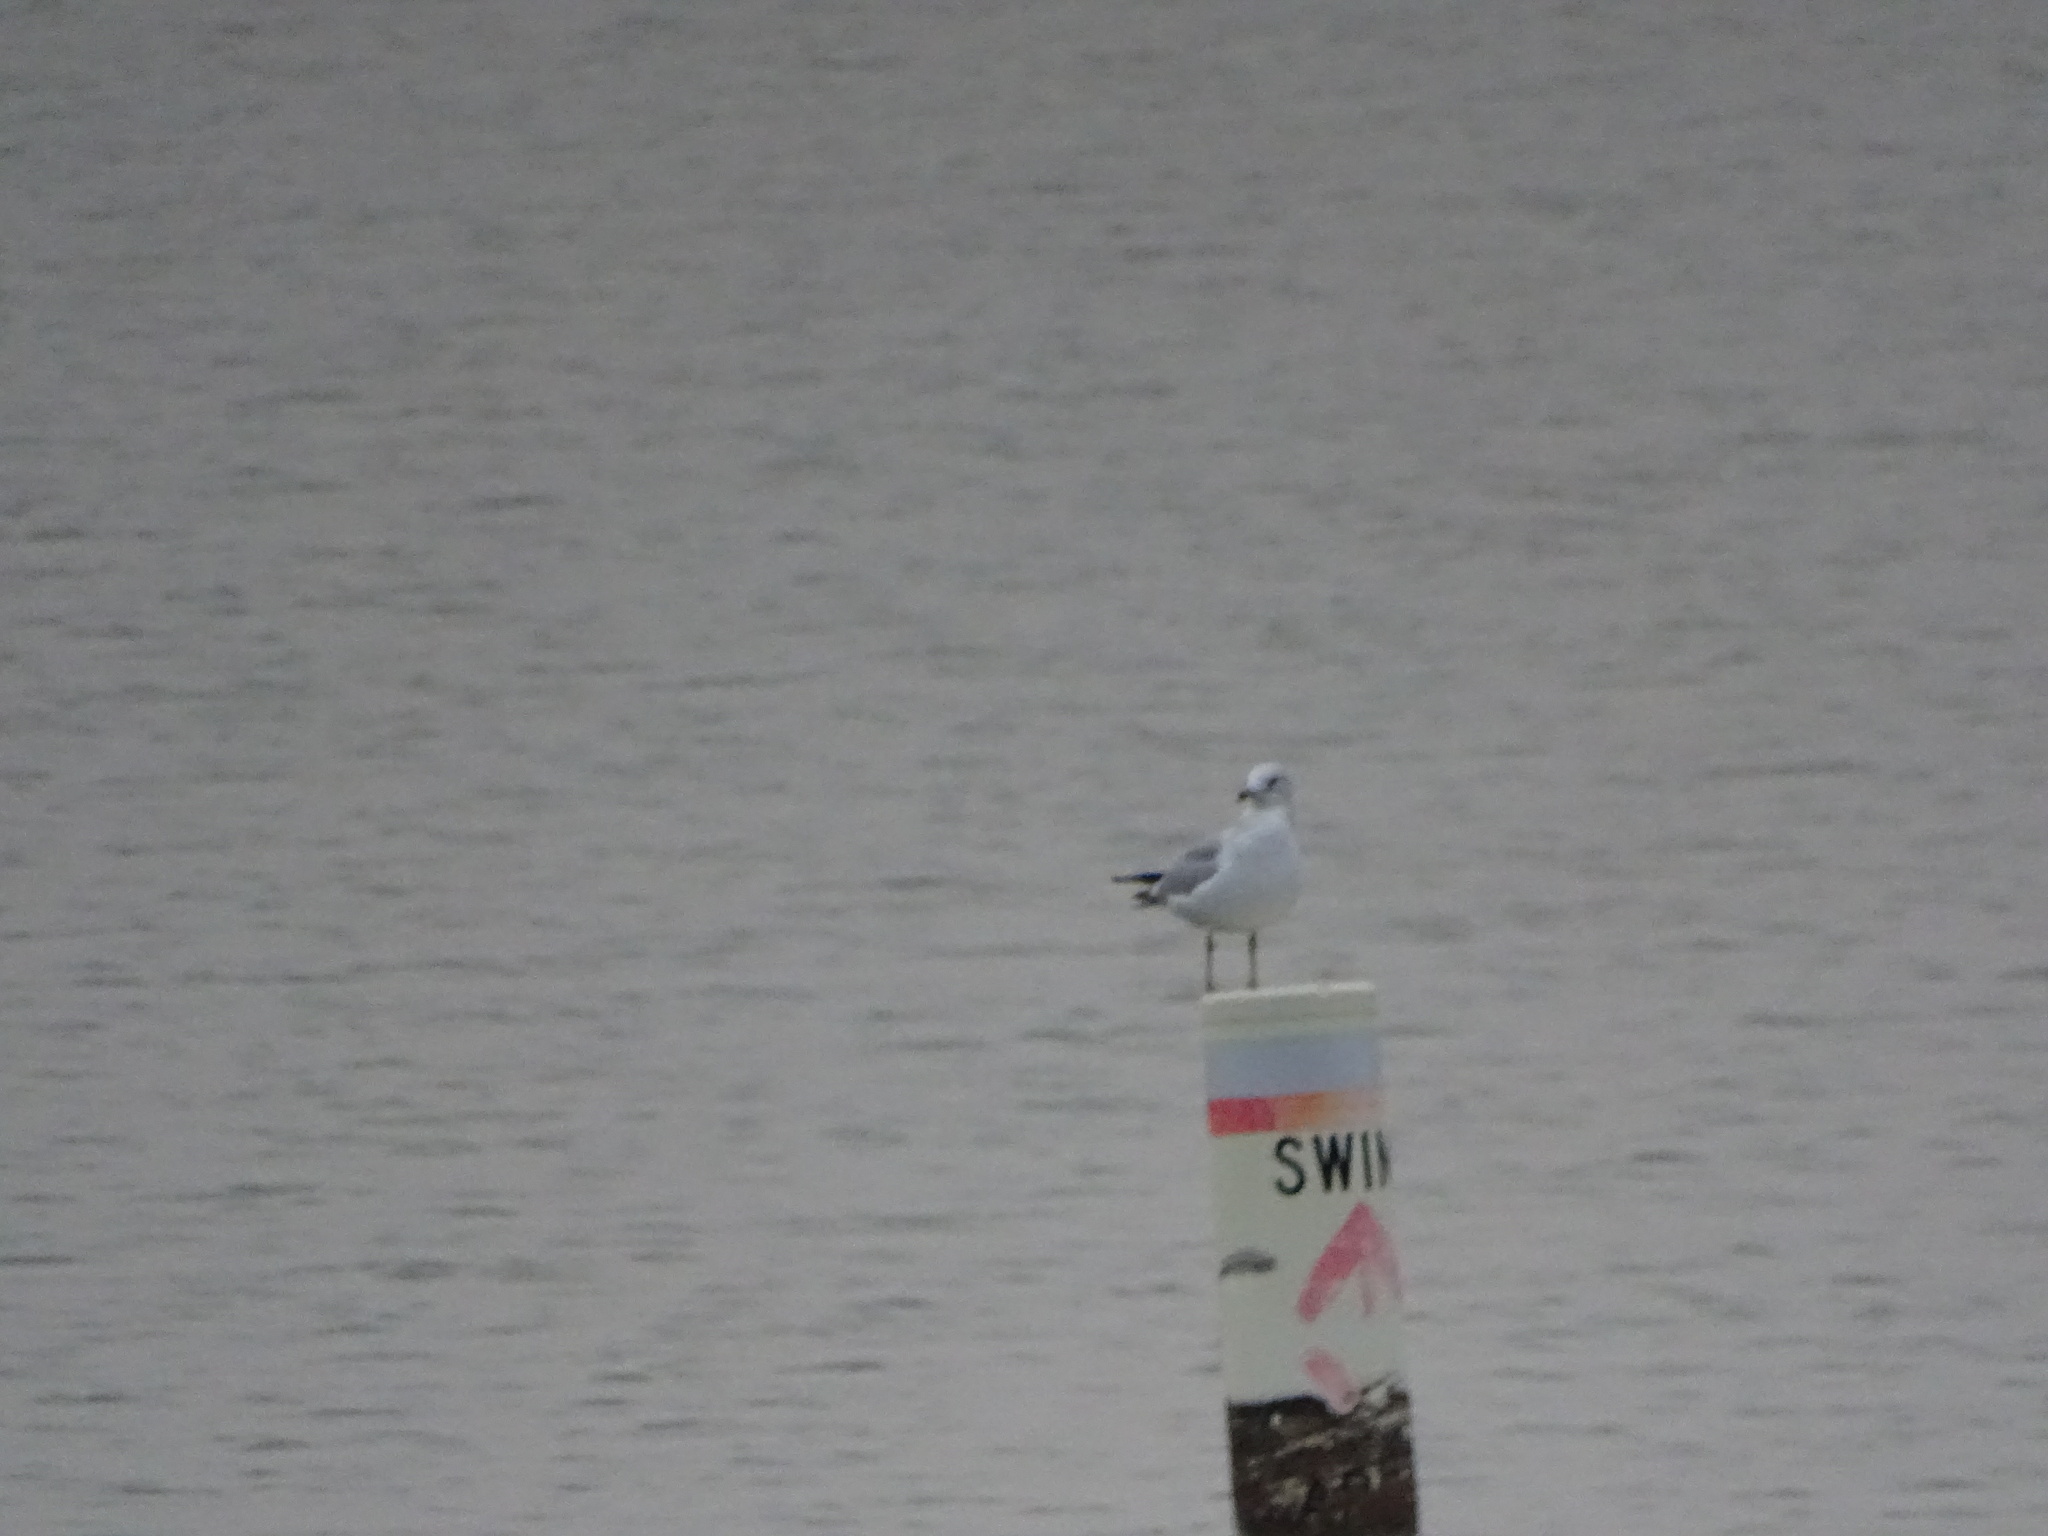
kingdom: Animalia
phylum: Chordata
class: Aves
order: Charadriiformes
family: Laridae
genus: Larus
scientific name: Larus delawarensis
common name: Ring-billed gull
